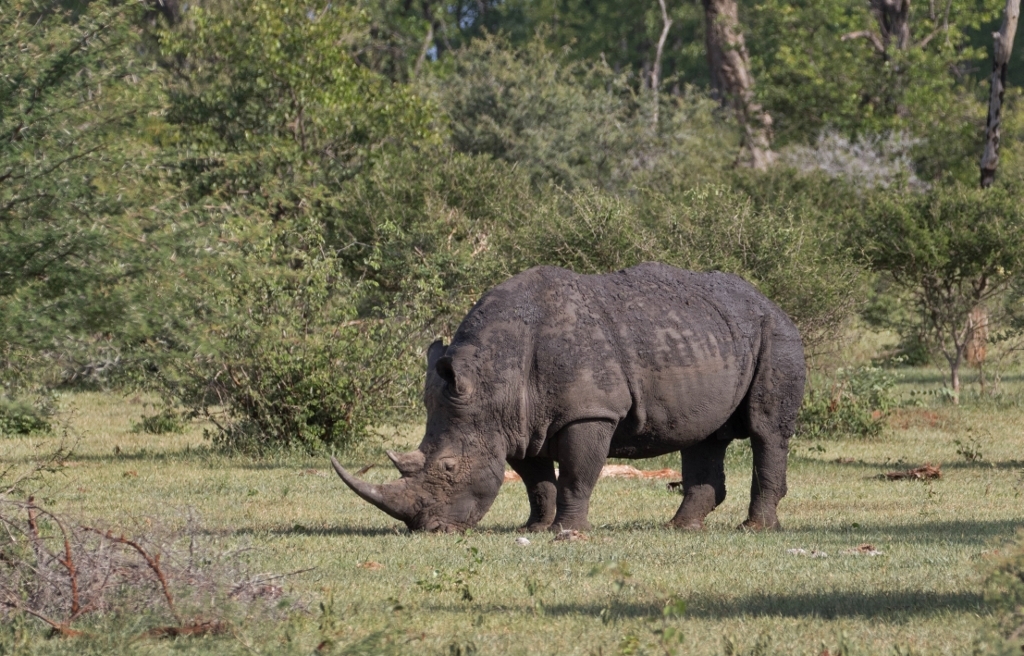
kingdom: Animalia
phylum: Chordata
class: Mammalia
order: Perissodactyla
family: Rhinocerotidae
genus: Ceratotherium
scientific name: Ceratotherium simum
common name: White rhinoceros
